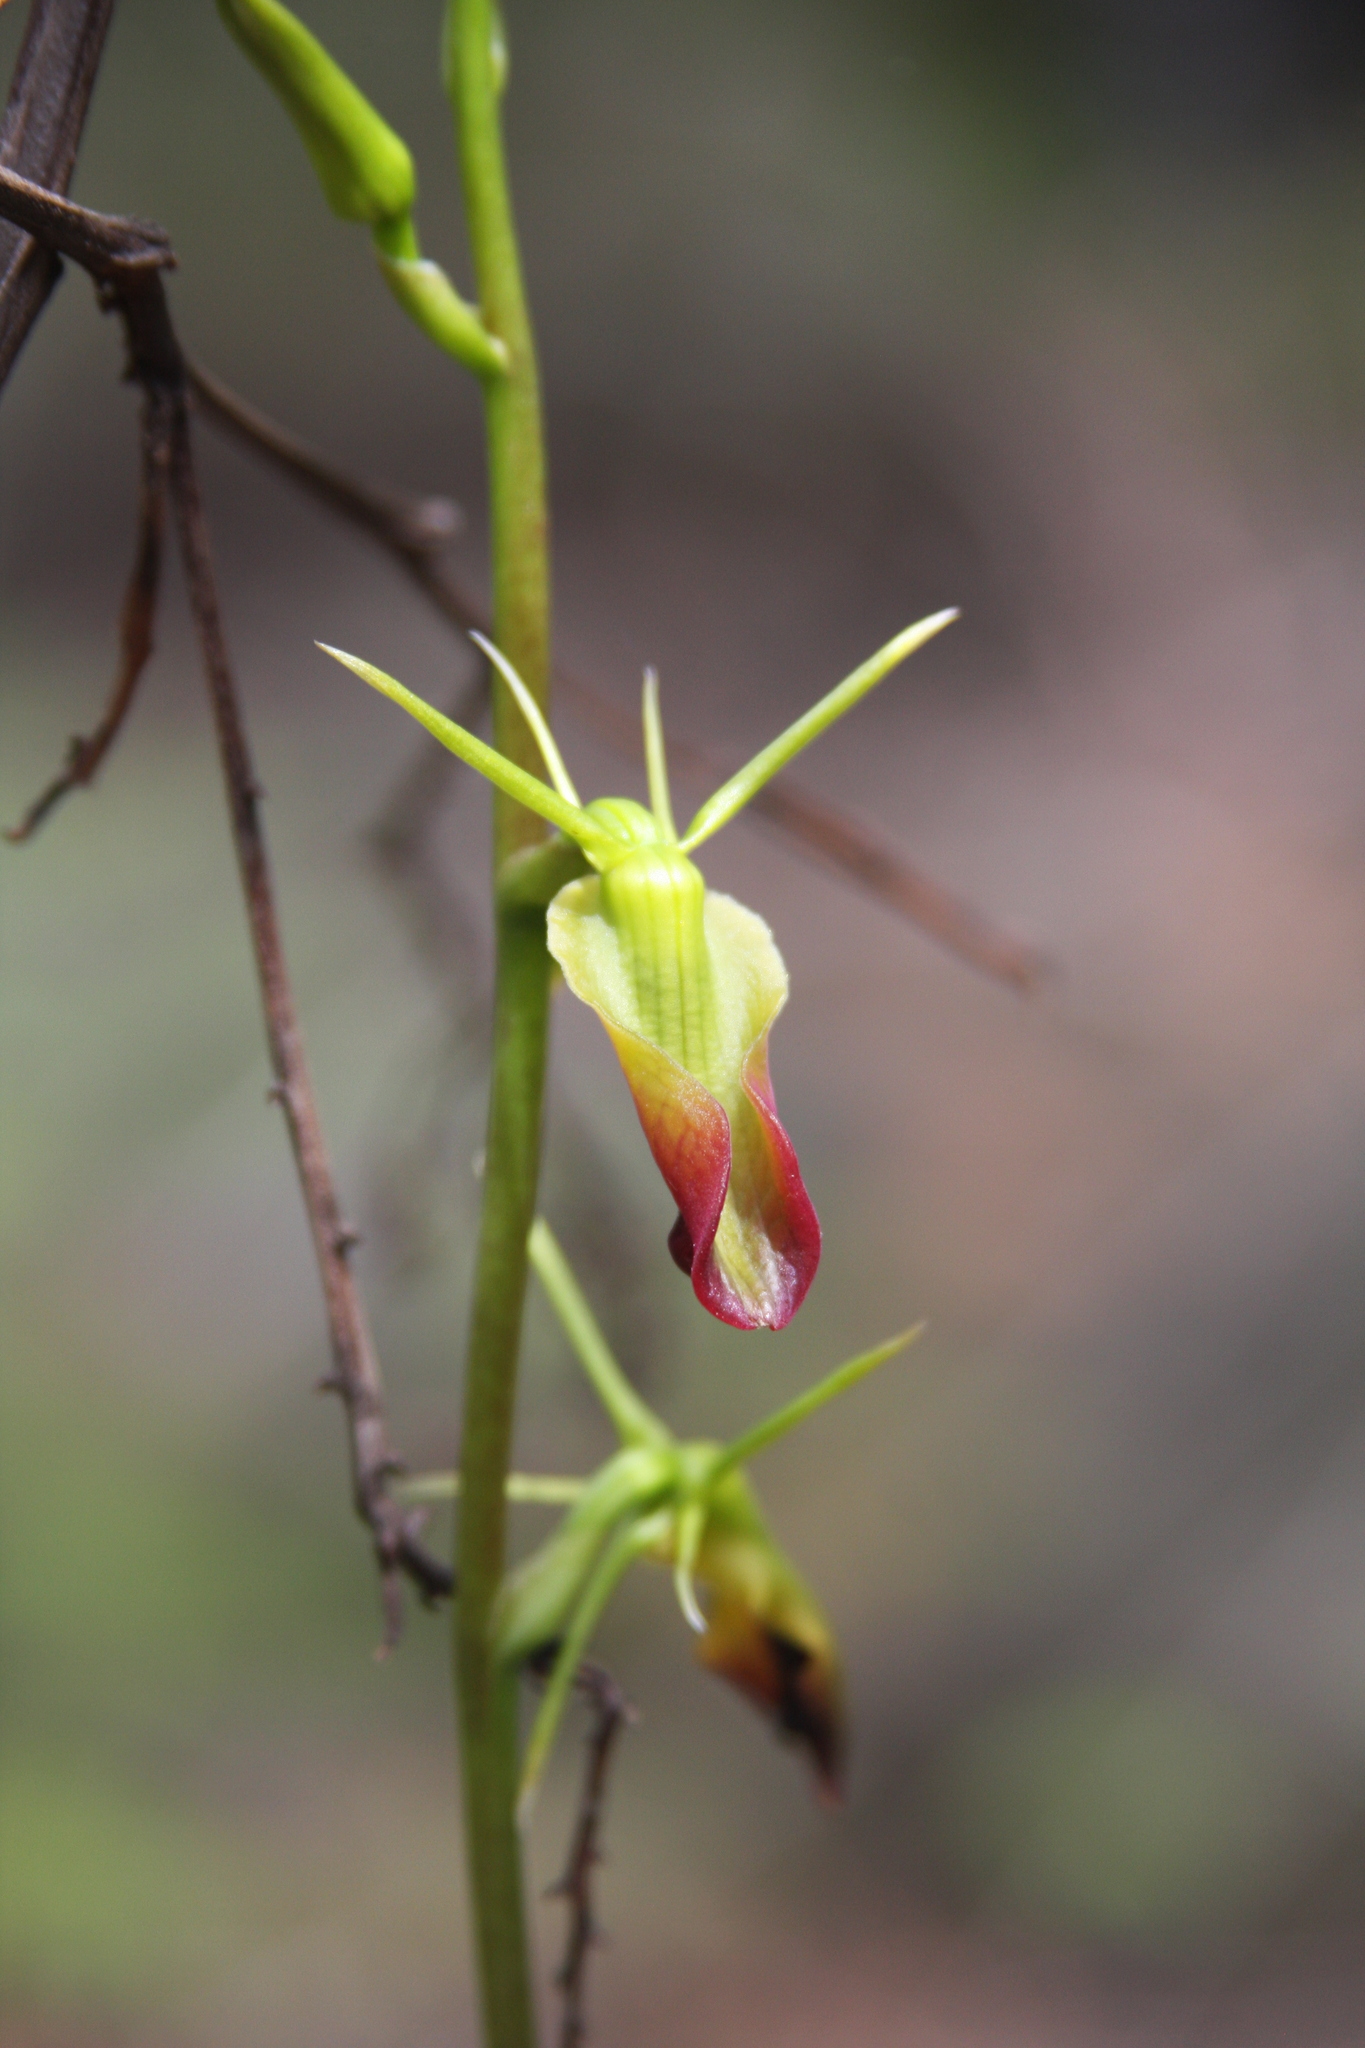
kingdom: Plantae
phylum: Tracheophyta
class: Liliopsida
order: Asparagales
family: Orchidaceae
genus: Cryptostylis
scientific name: Cryptostylis subulata
